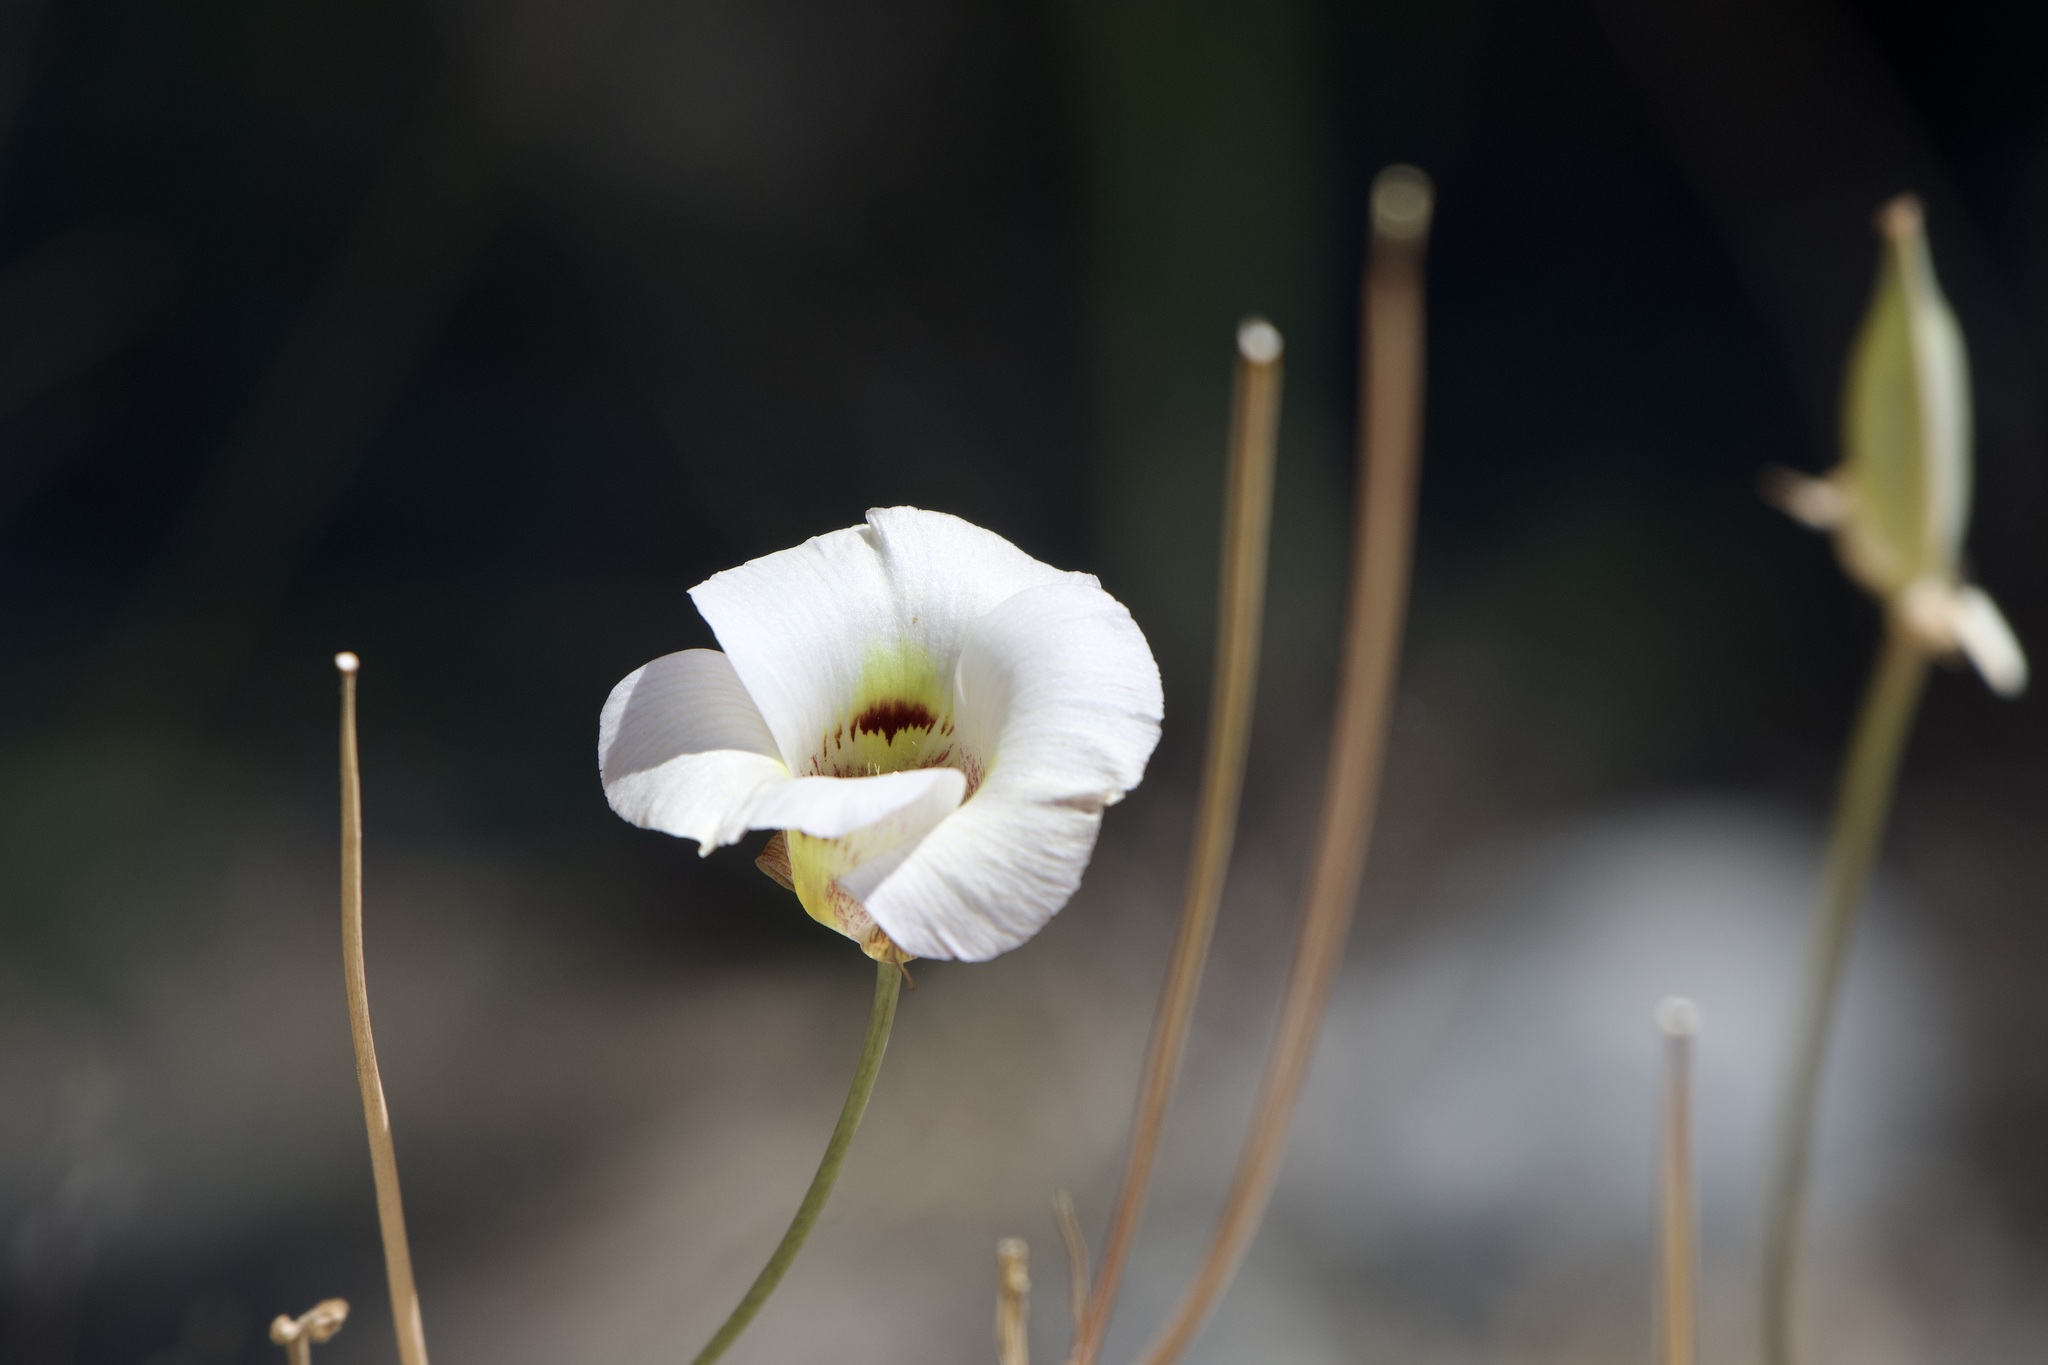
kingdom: Plantae
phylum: Tracheophyta
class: Liliopsida
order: Liliales
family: Liliaceae
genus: Calochortus
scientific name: Calochortus argillosus
